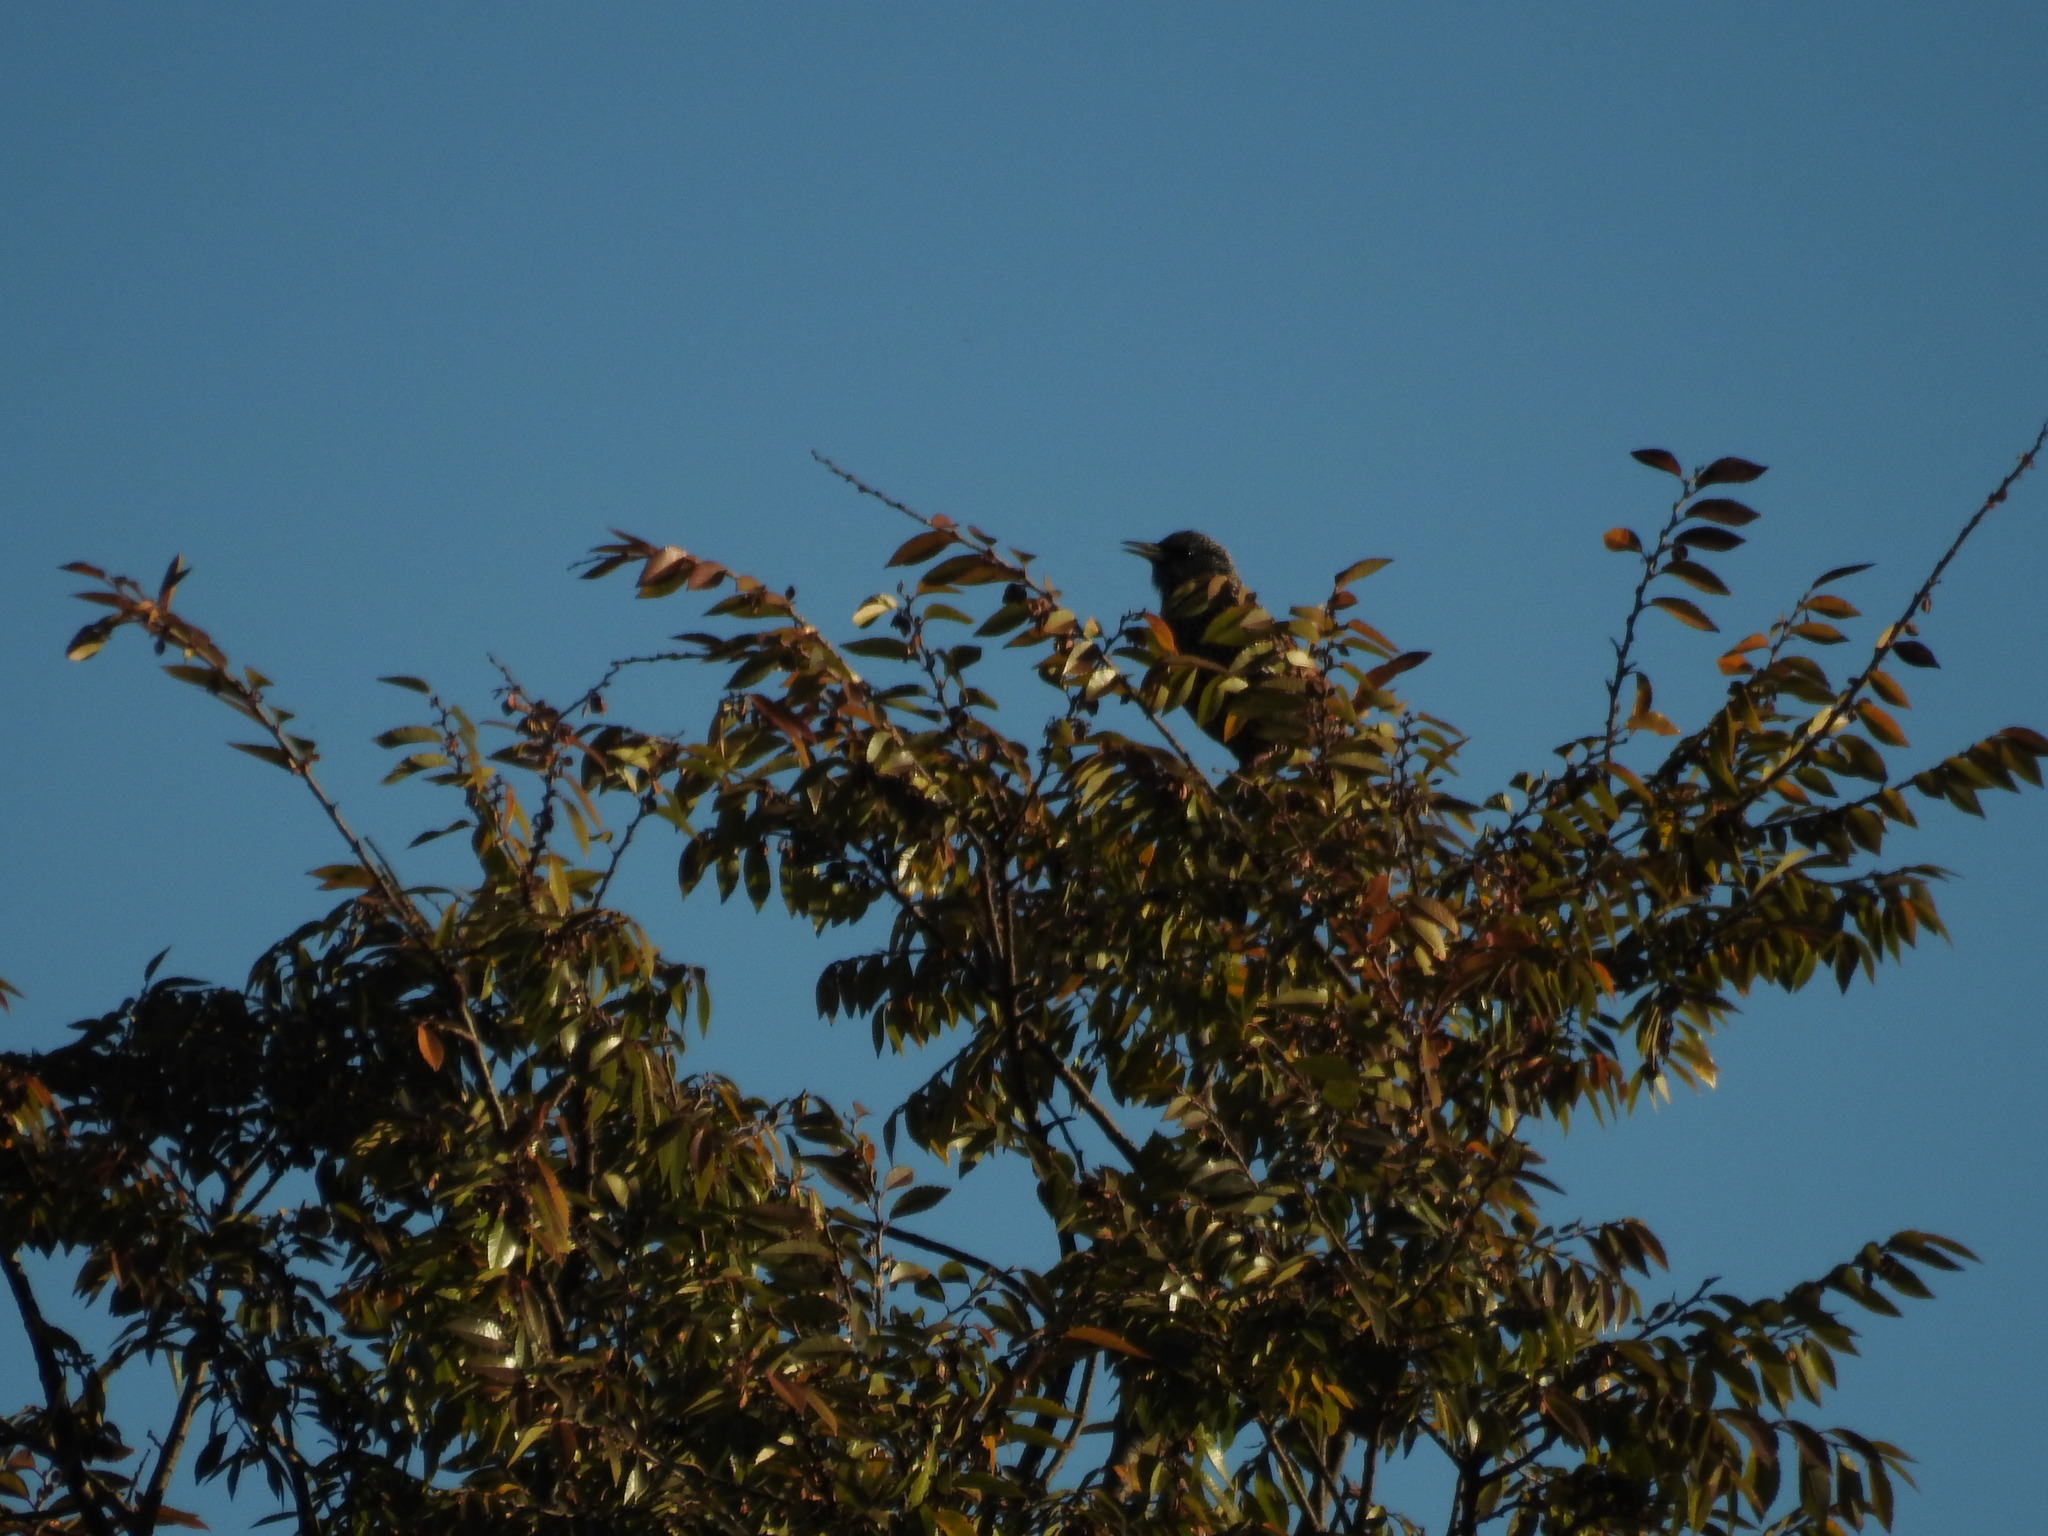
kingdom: Animalia
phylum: Chordata
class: Aves
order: Passeriformes
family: Sturnidae
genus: Sturnus
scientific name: Sturnus vulgaris
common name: Common starling
